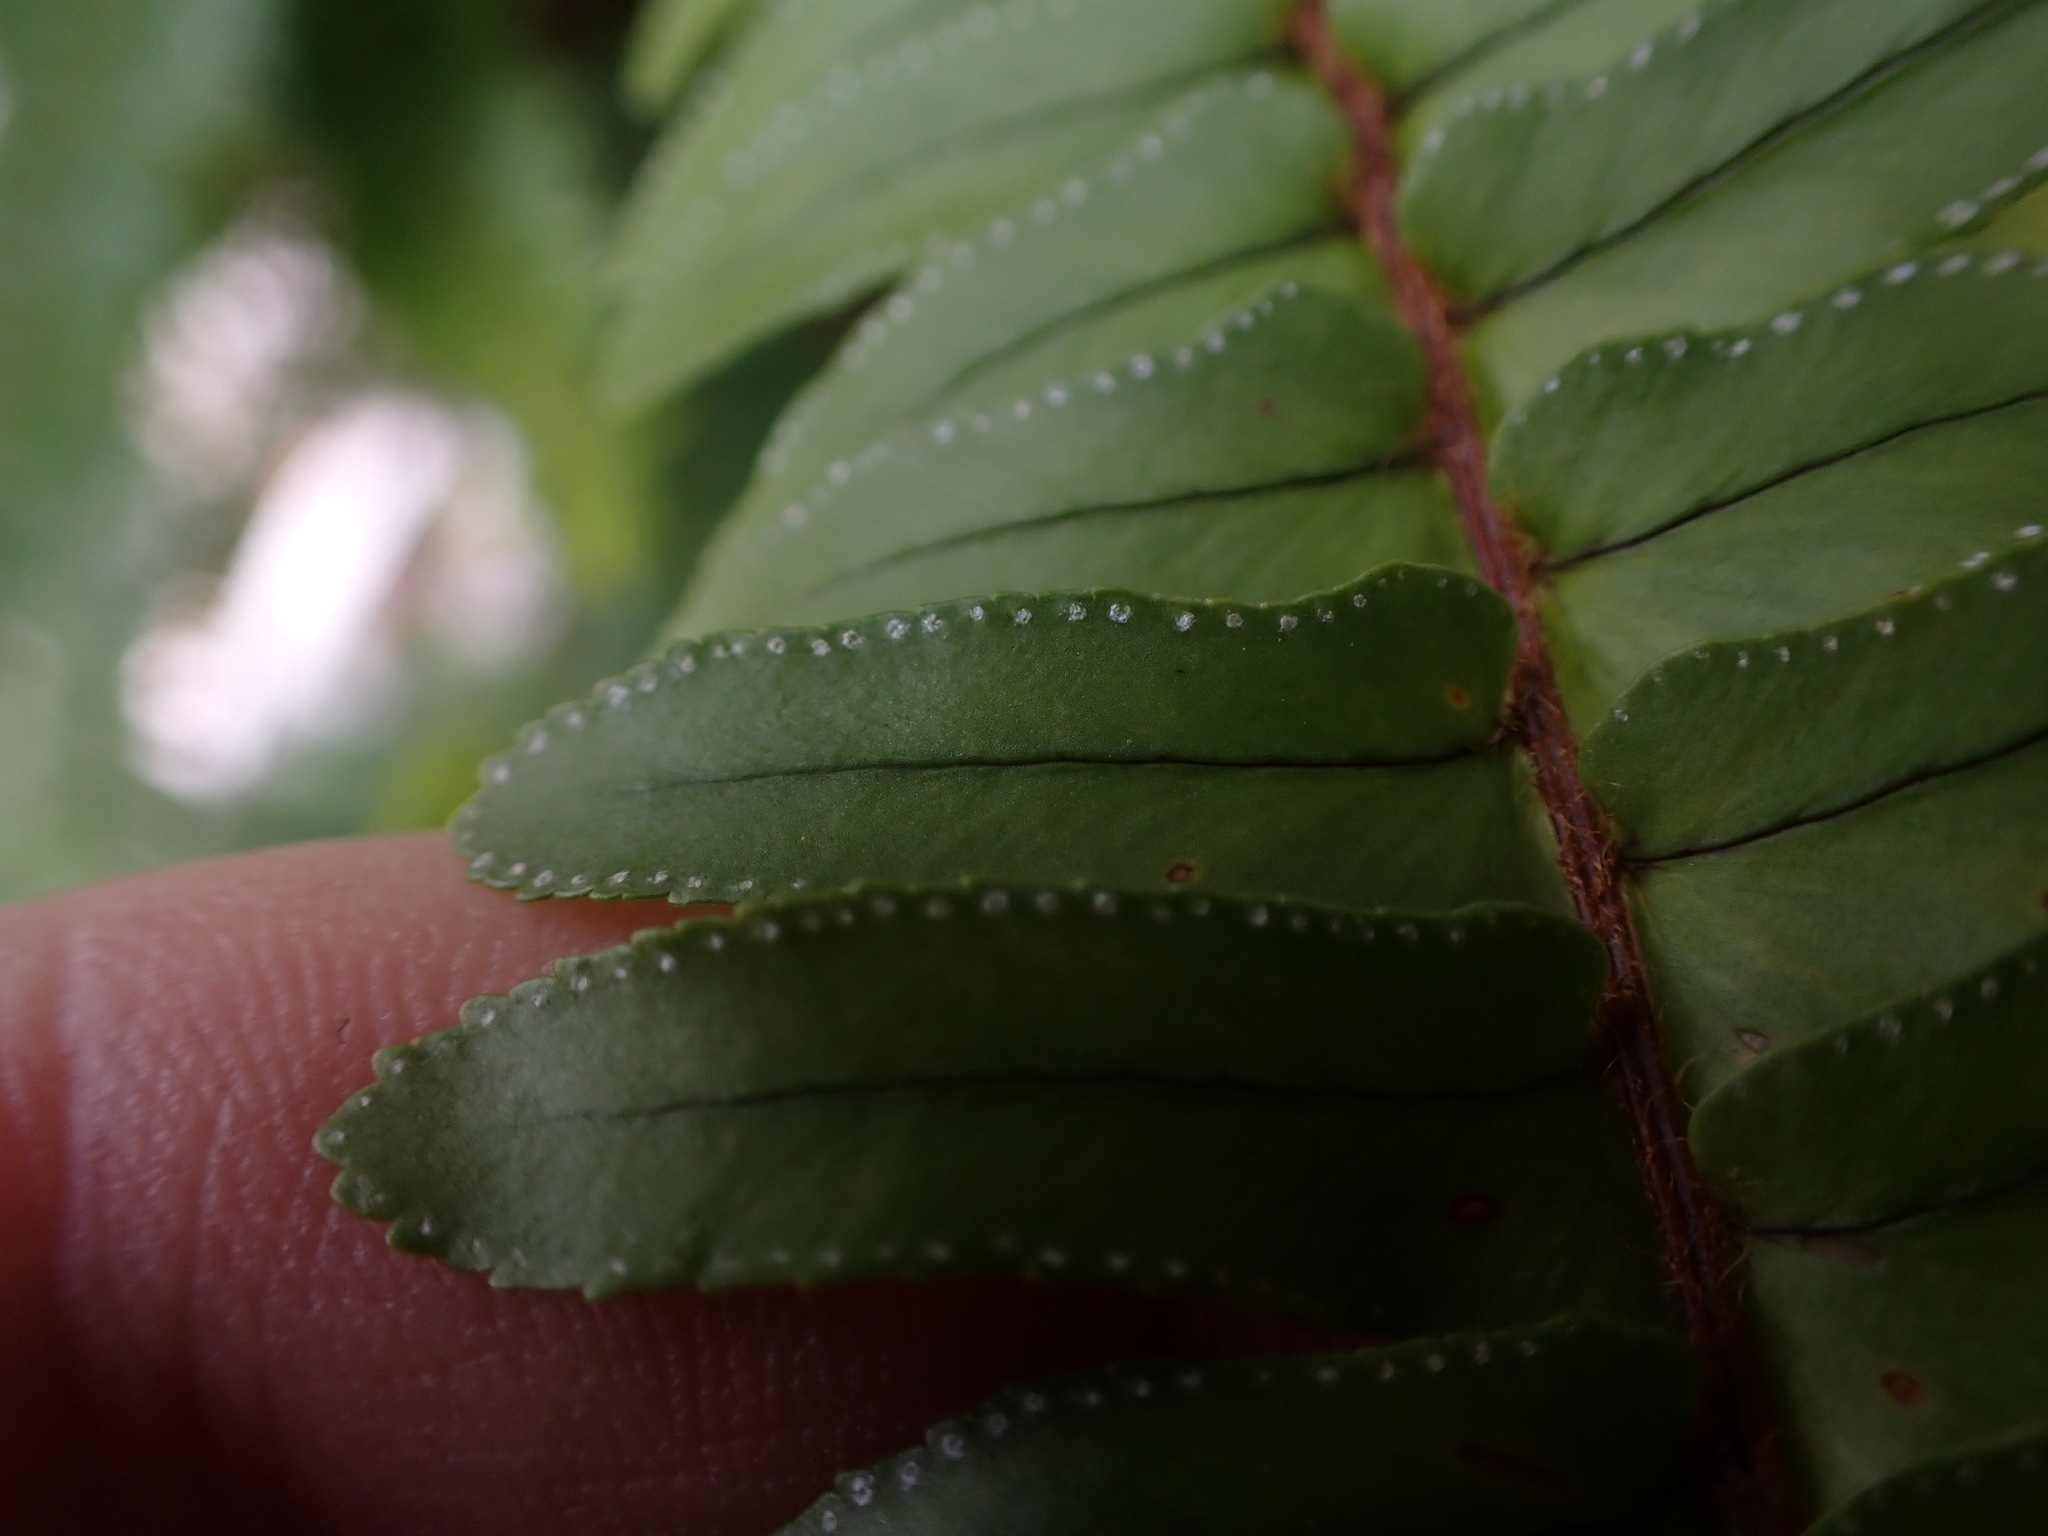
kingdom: Plantae
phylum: Tracheophyta
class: Polypodiopsida
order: Polypodiales
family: Nephrolepidaceae
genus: Nephrolepis
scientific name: Nephrolepis cordifolia
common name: Narrow swordfern
